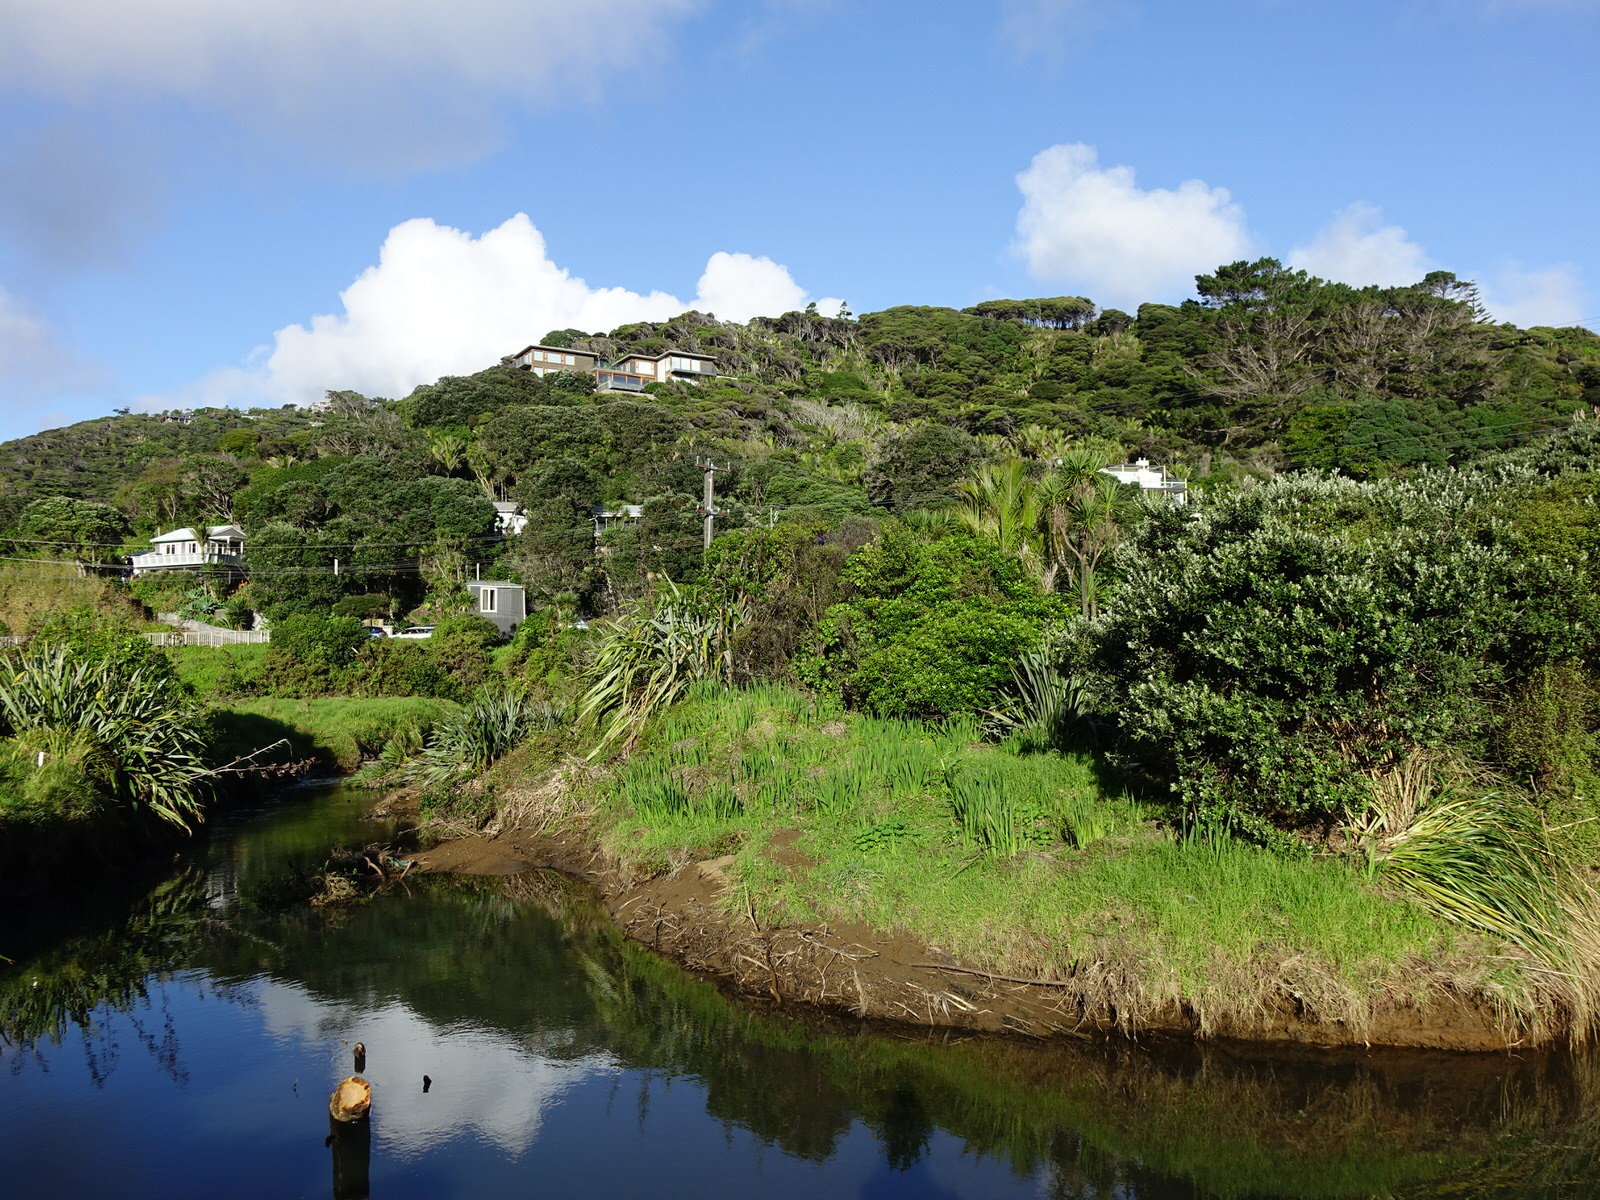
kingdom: Animalia
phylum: Chordata
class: Aves
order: Gruiformes
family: Rallidae
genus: Porphyrio
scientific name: Porphyrio melanotus
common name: Australasian swamphen
